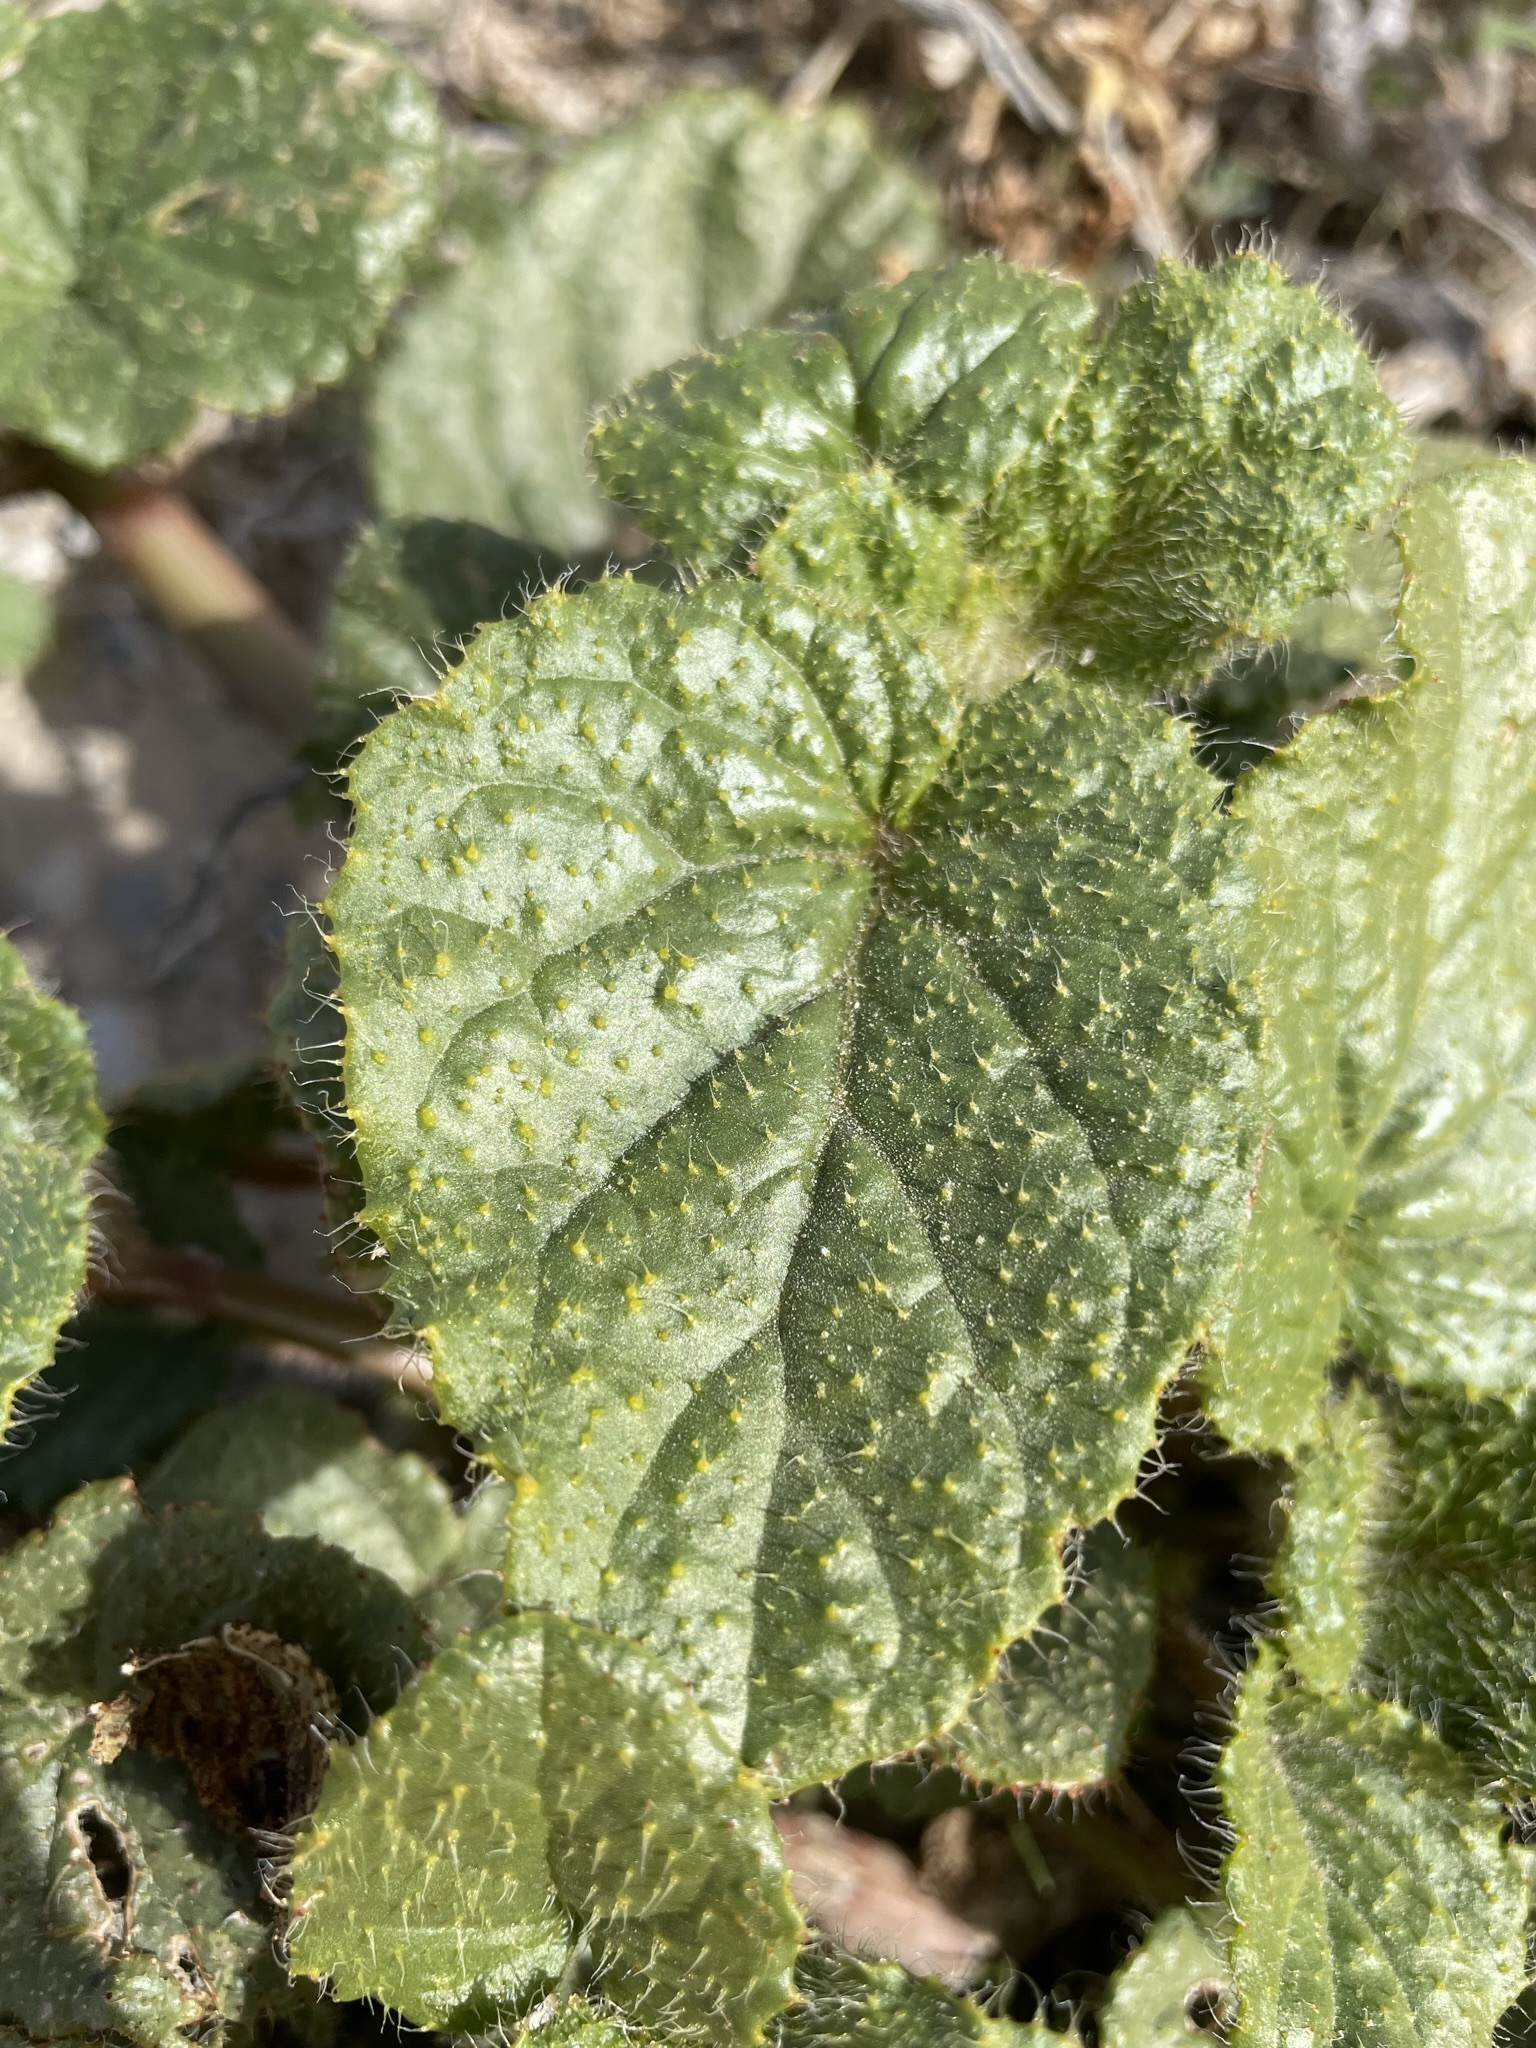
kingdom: Plantae
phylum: Tracheophyta
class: Magnoliopsida
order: Caryophyllales
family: Nyctaginaceae
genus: Anulocaulis
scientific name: Anulocaulis annulatus
